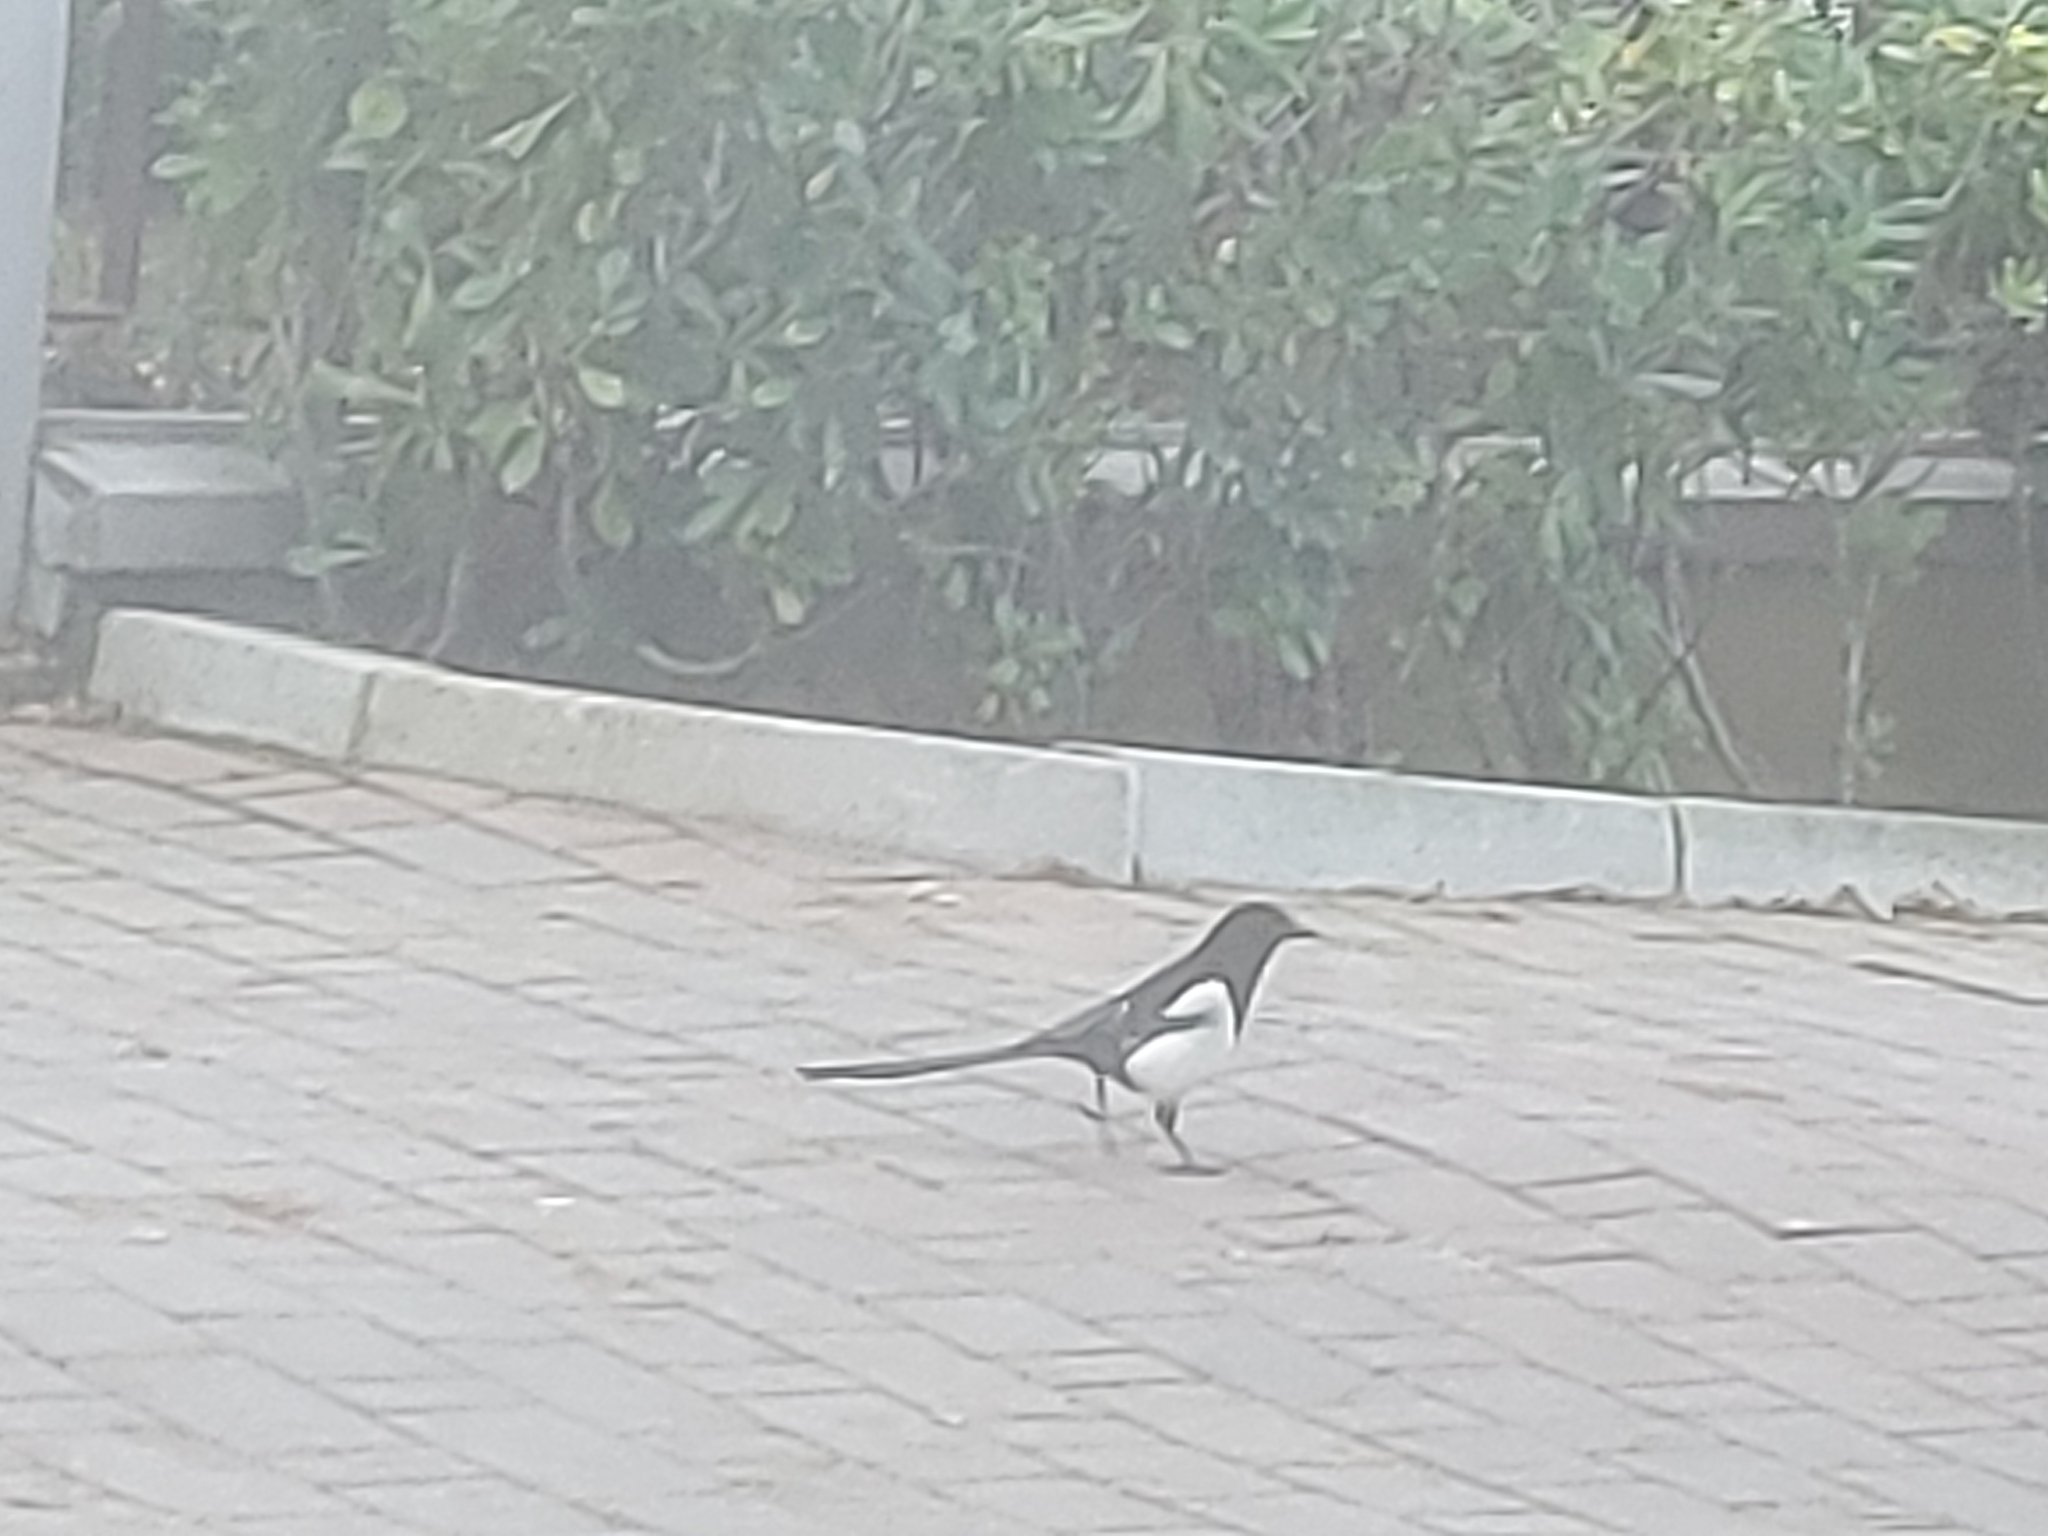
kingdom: Animalia
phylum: Chordata
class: Aves
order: Passeriformes
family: Corvidae
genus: Pica
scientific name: Pica pica
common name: Eurasian magpie
